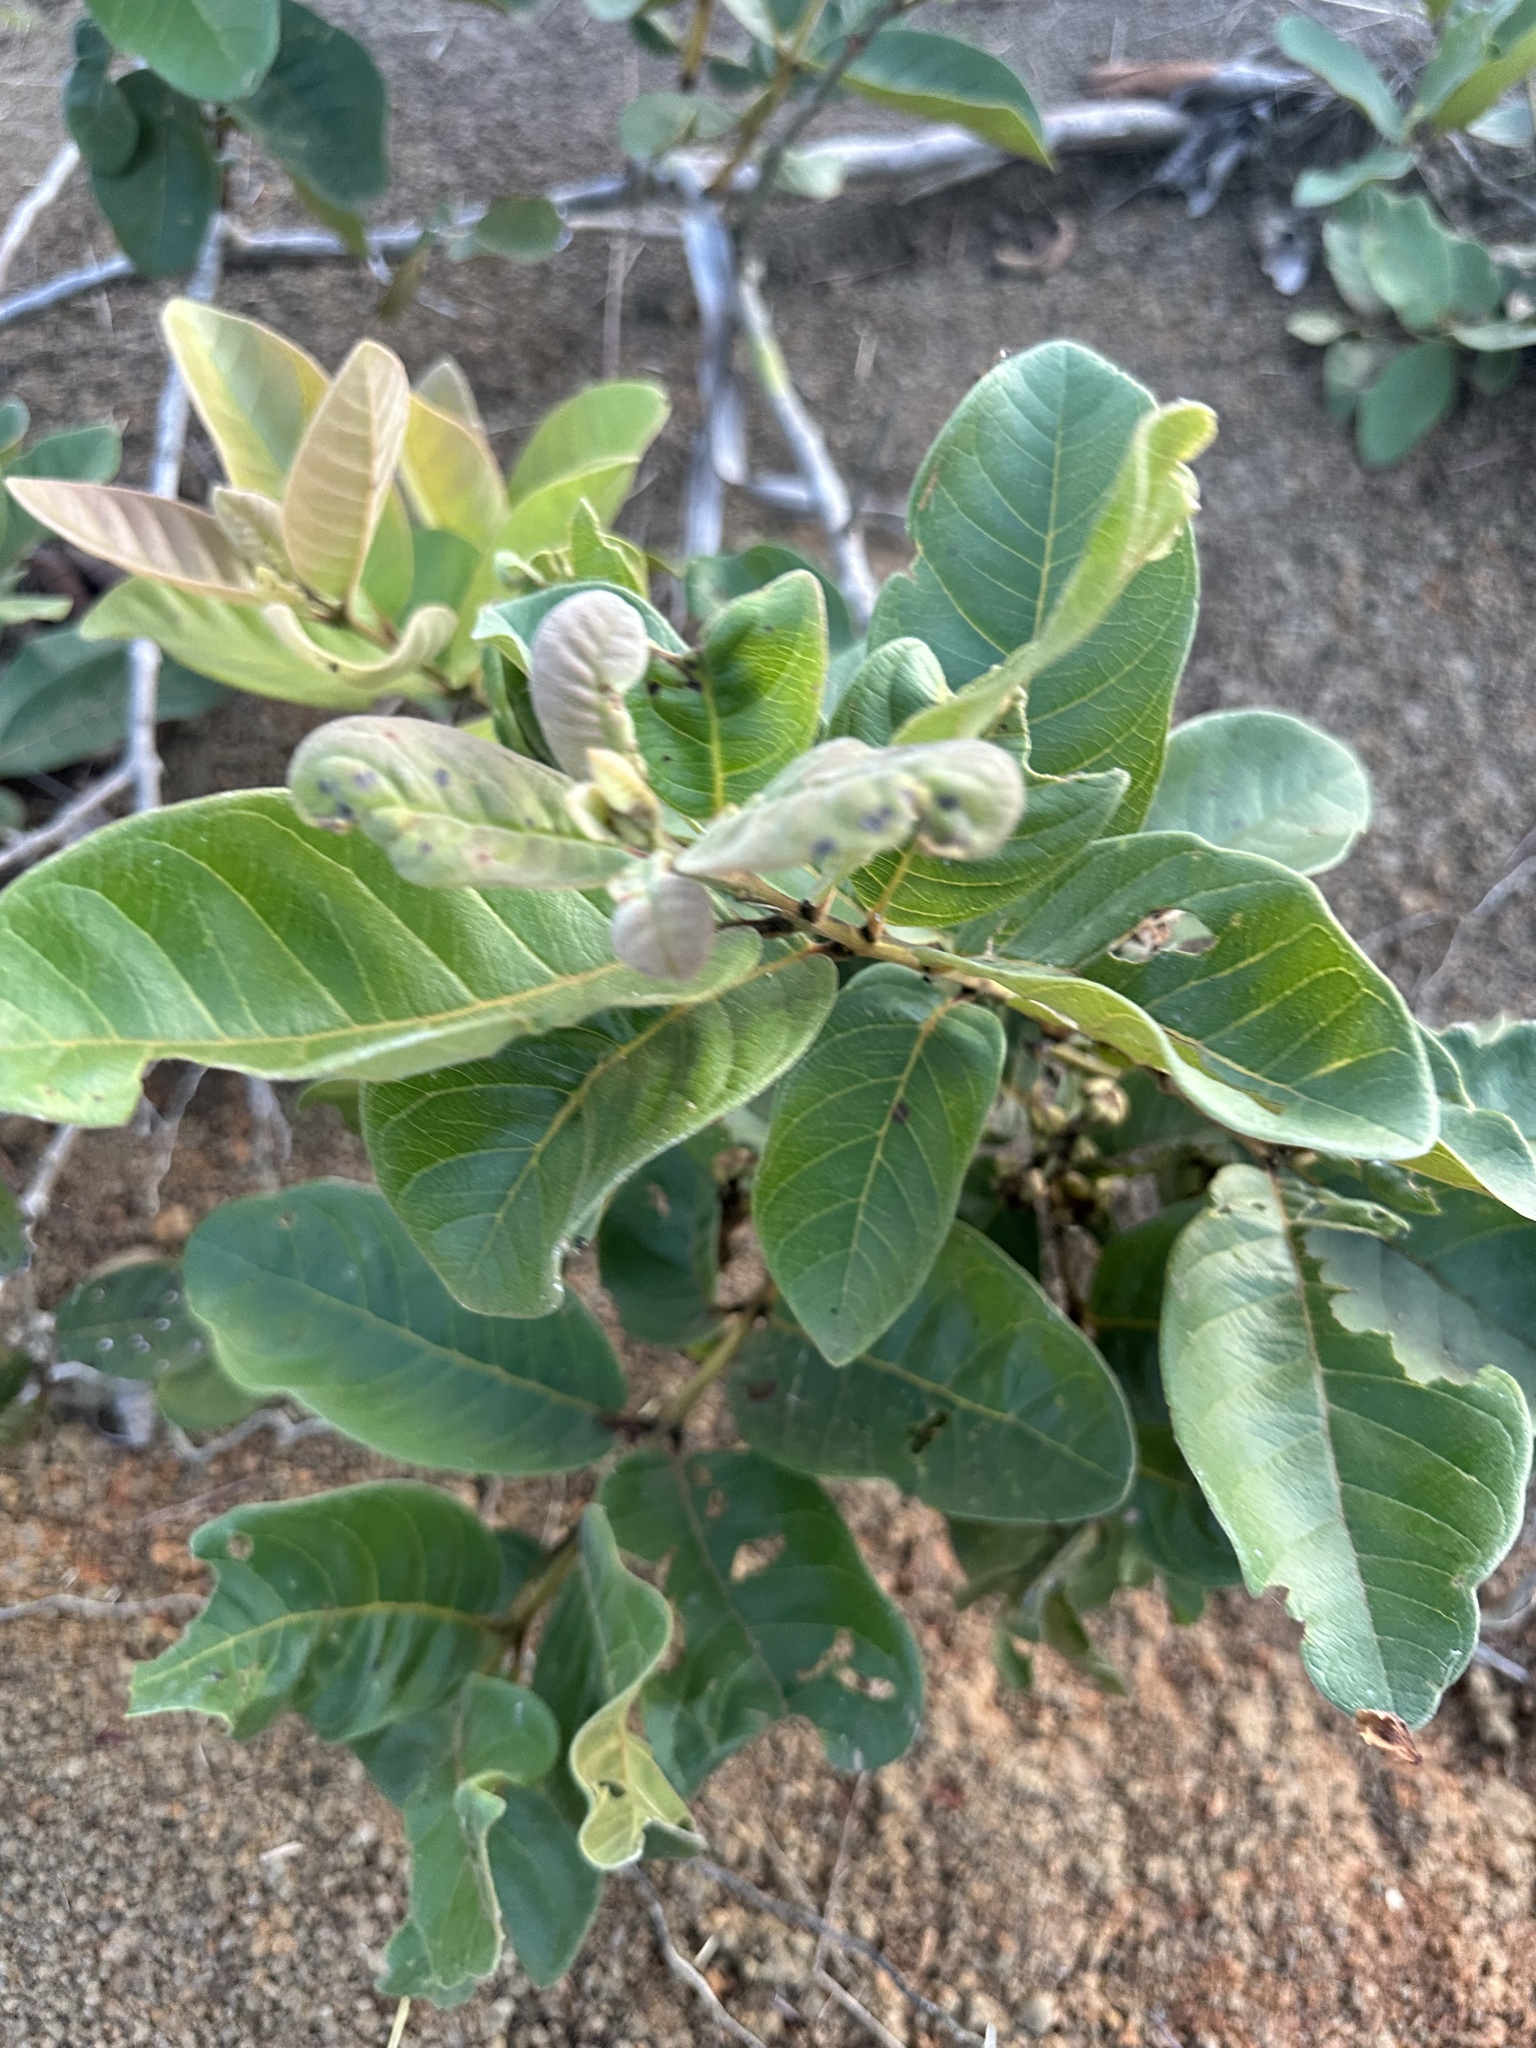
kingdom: Plantae
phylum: Tracheophyta
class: Magnoliopsida
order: Myrtales
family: Myrtaceae
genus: Psidium
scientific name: Psidium guajava
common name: Guava
